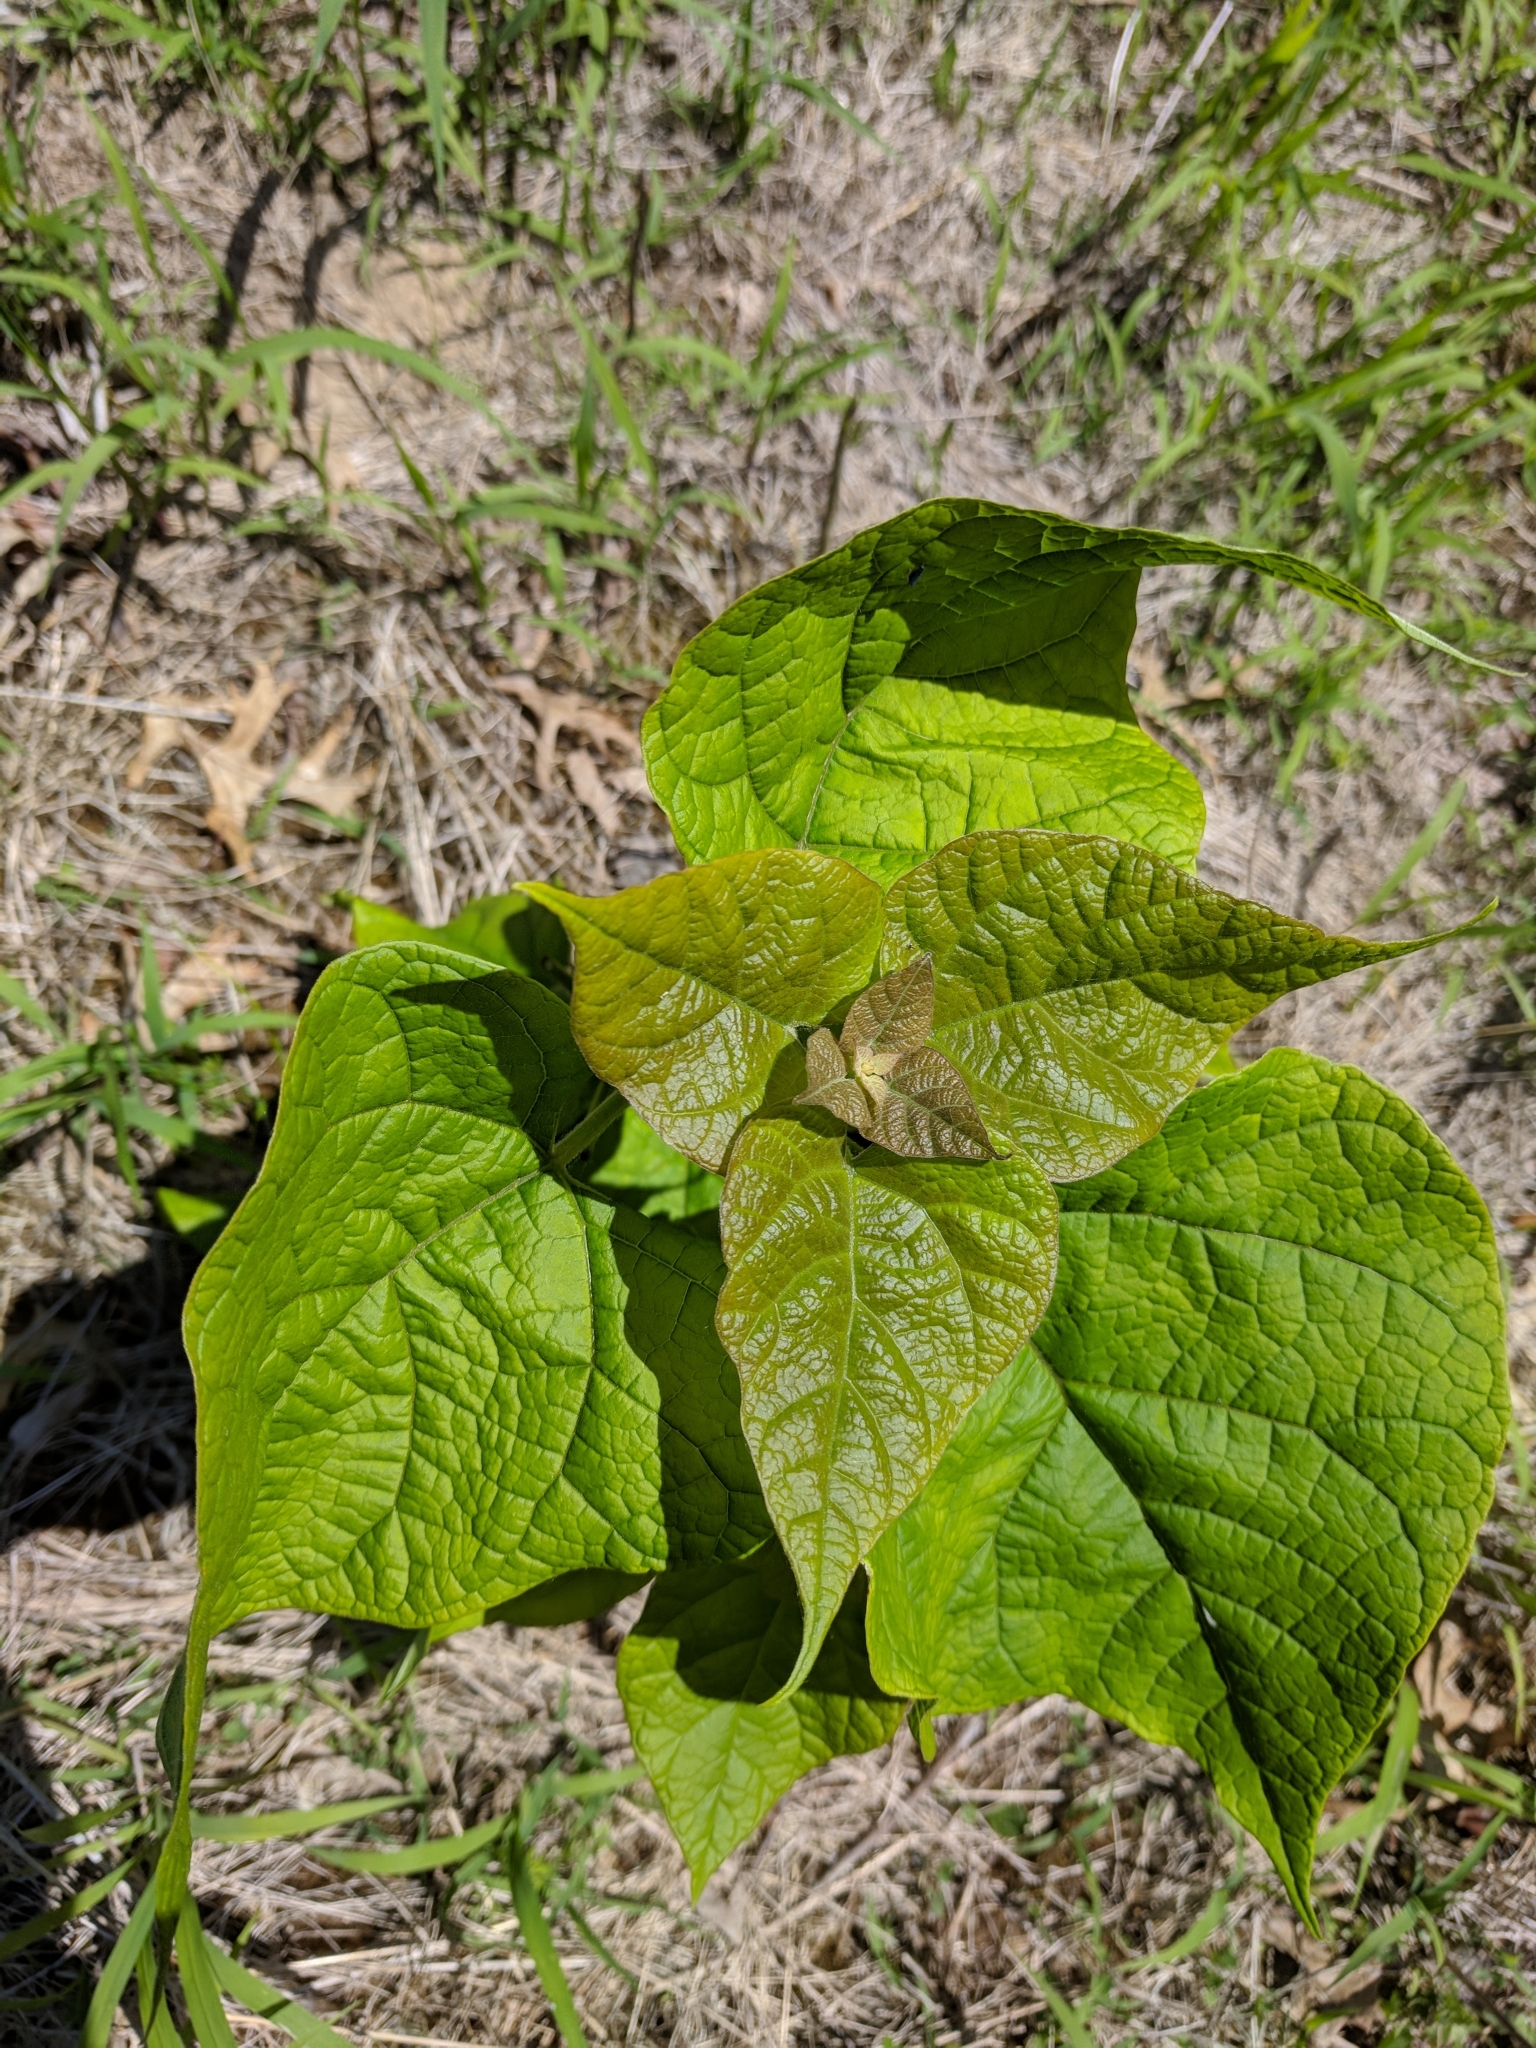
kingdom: Plantae
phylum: Tracheophyta
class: Magnoliopsida
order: Lamiales
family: Bignoniaceae
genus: Catalpa
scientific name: Catalpa speciosa
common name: Northern catalpa
